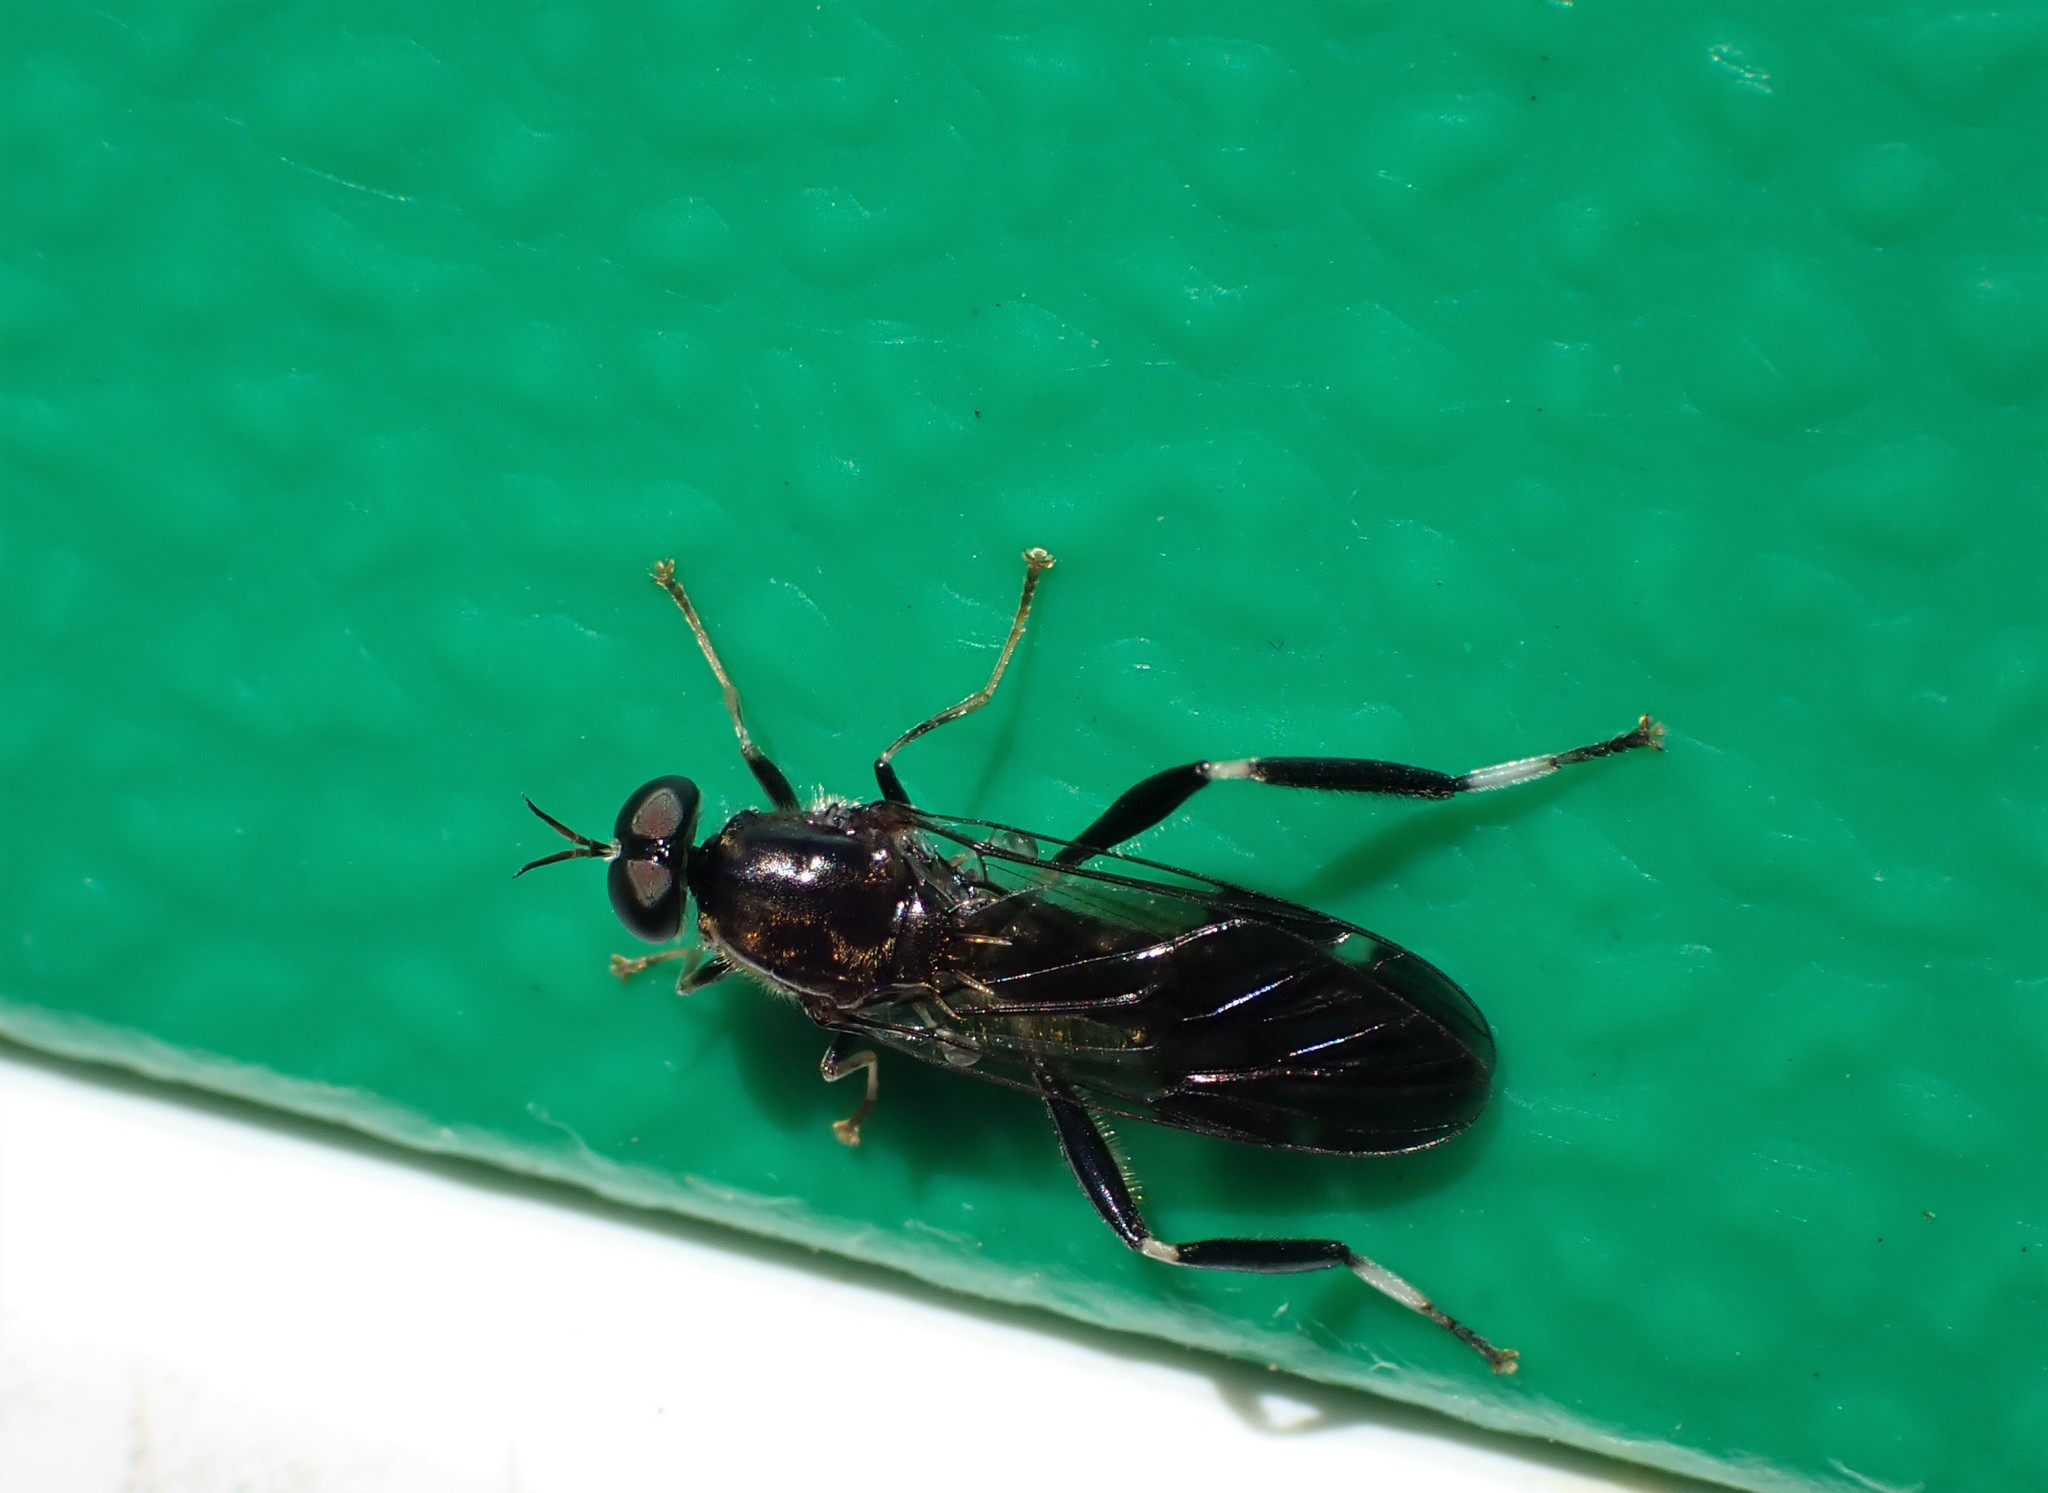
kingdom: Animalia
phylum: Arthropoda
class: Insecta
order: Diptera
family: Stratiomyidae
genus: Exaireta
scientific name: Exaireta spinigera
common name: Blue soldier fly
